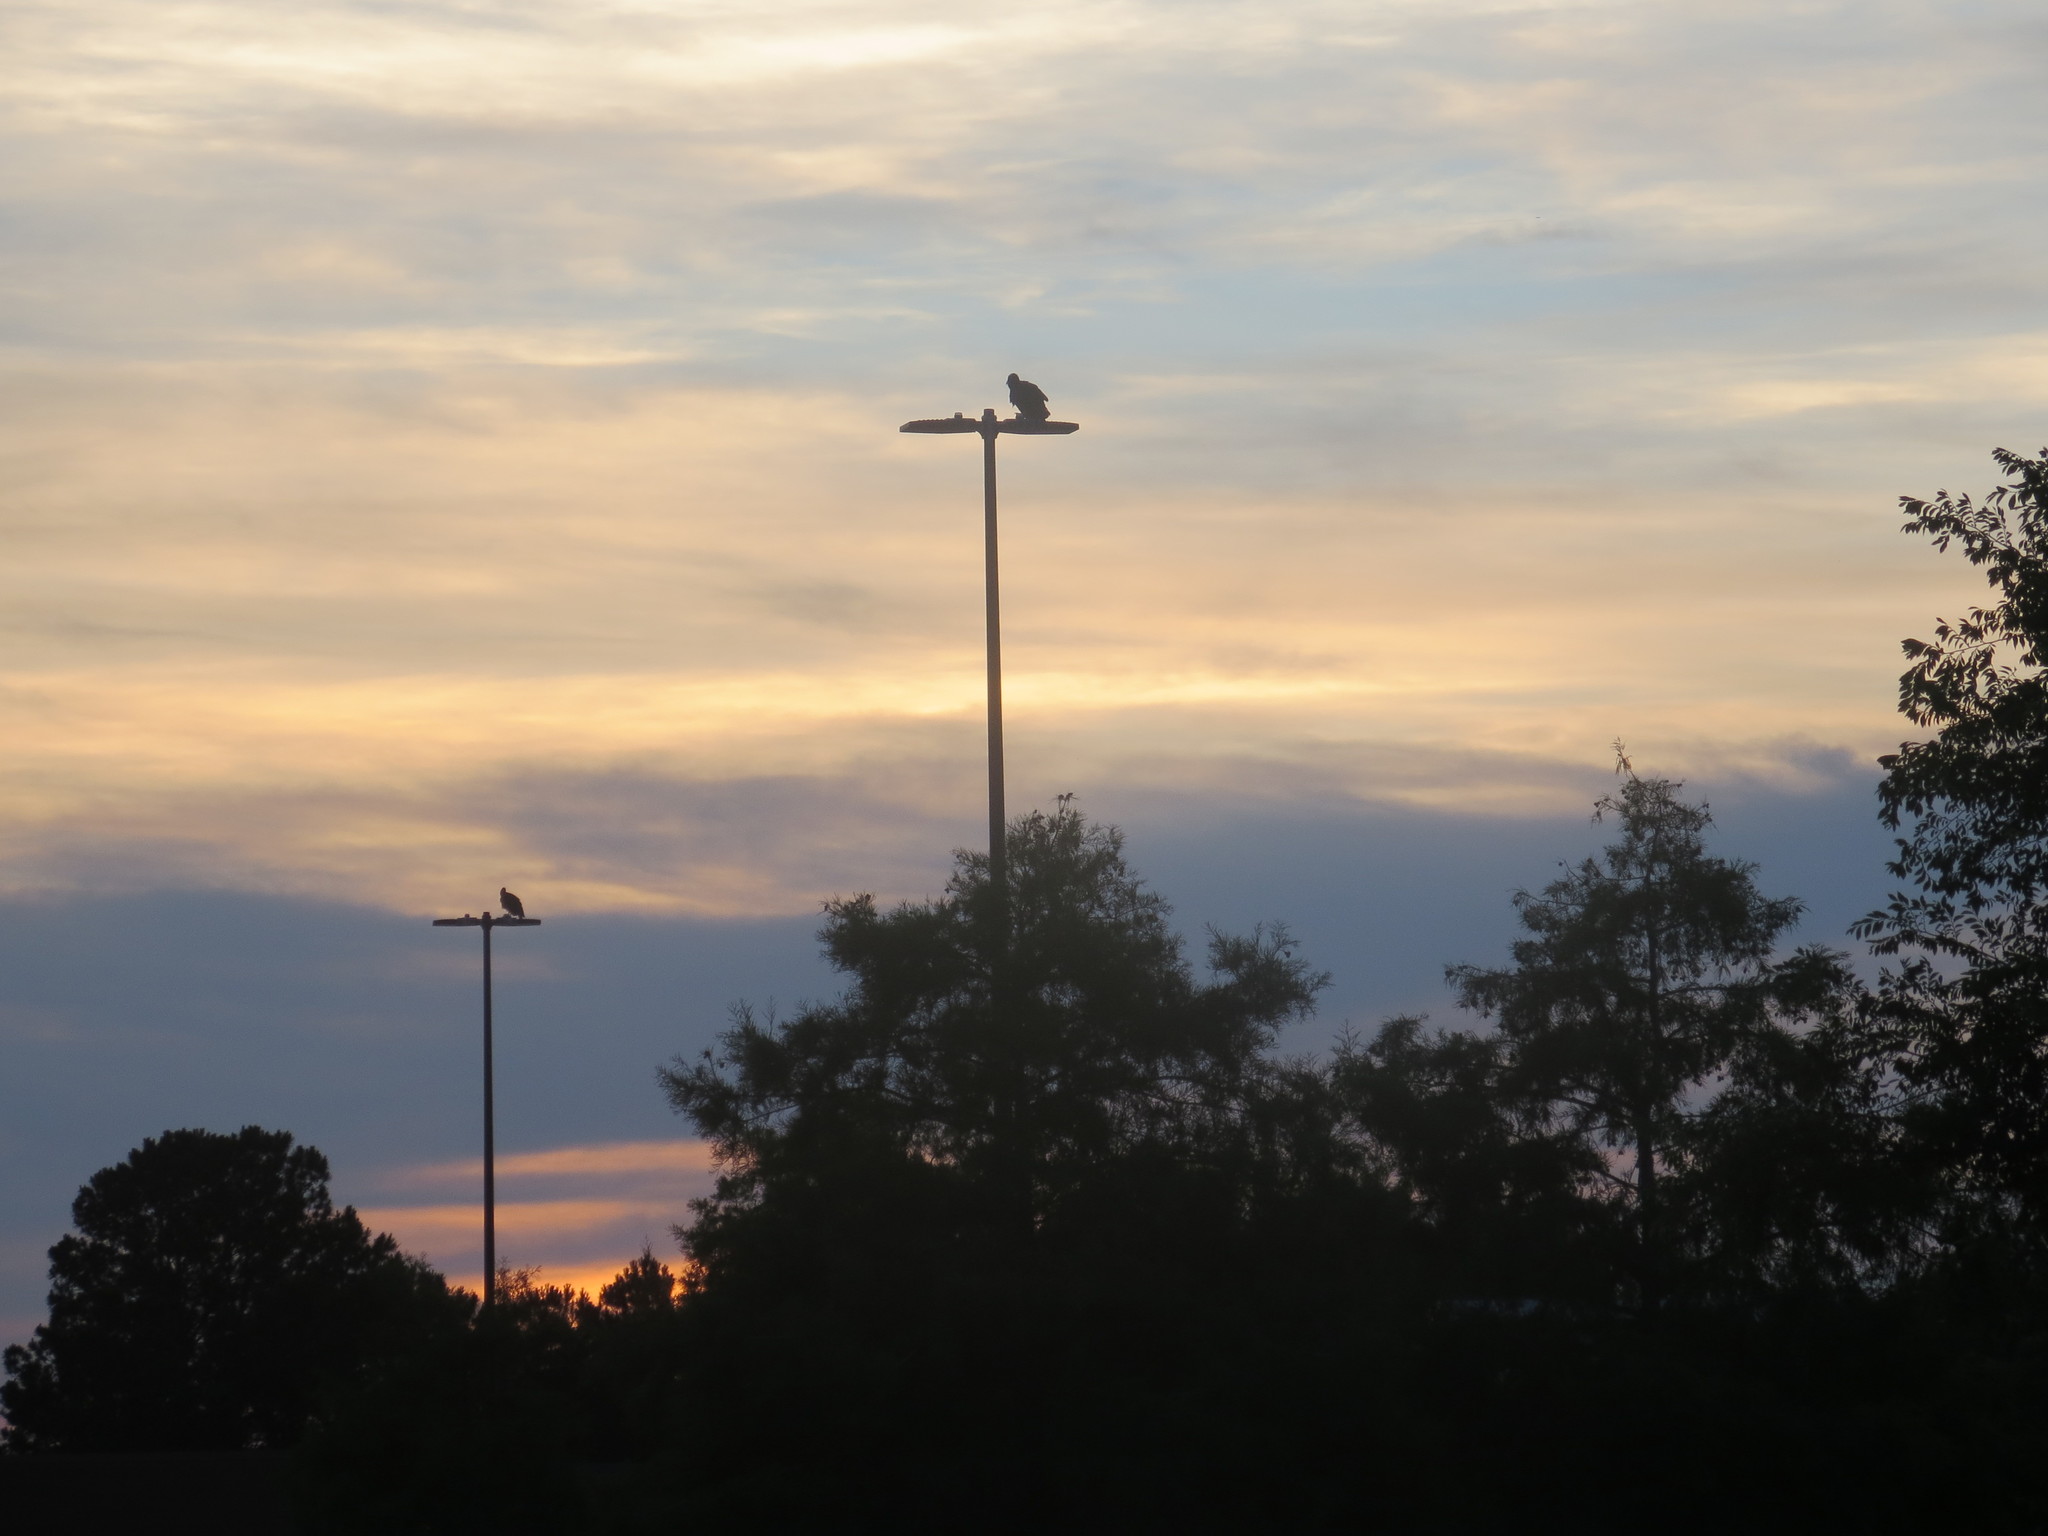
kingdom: Animalia
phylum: Chordata
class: Aves
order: Accipitriformes
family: Cathartidae
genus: Coragyps
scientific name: Coragyps atratus
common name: Black vulture
